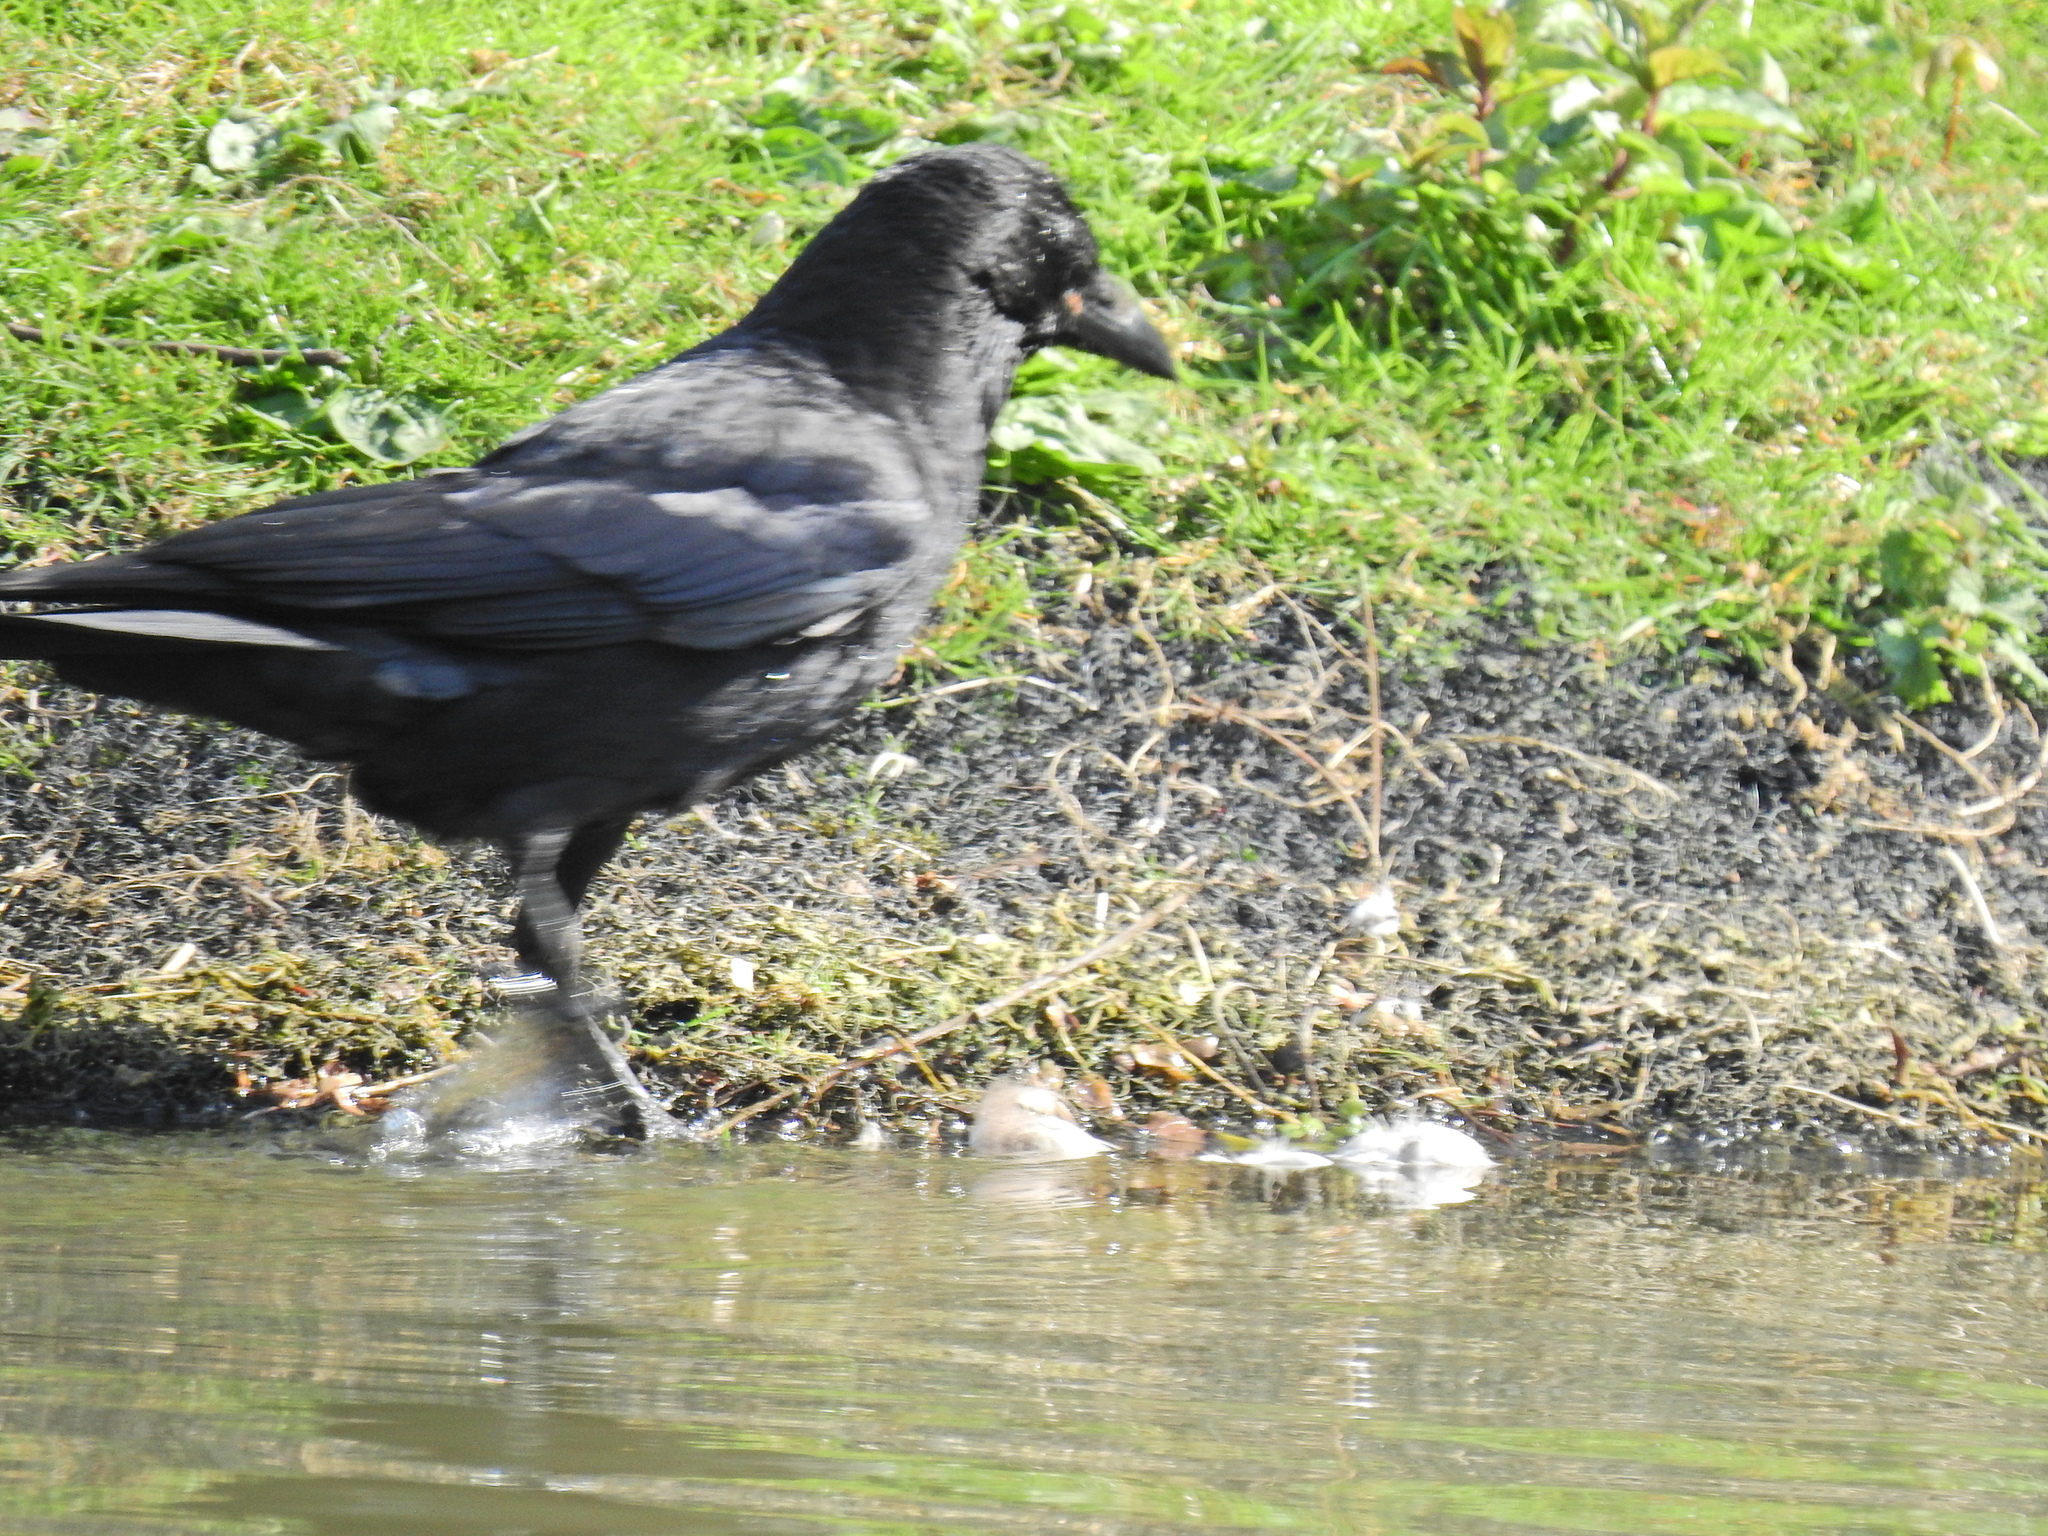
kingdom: Animalia
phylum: Chordata
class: Aves
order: Passeriformes
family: Corvidae
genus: Corvus
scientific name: Corvus corone
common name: Carrion crow
